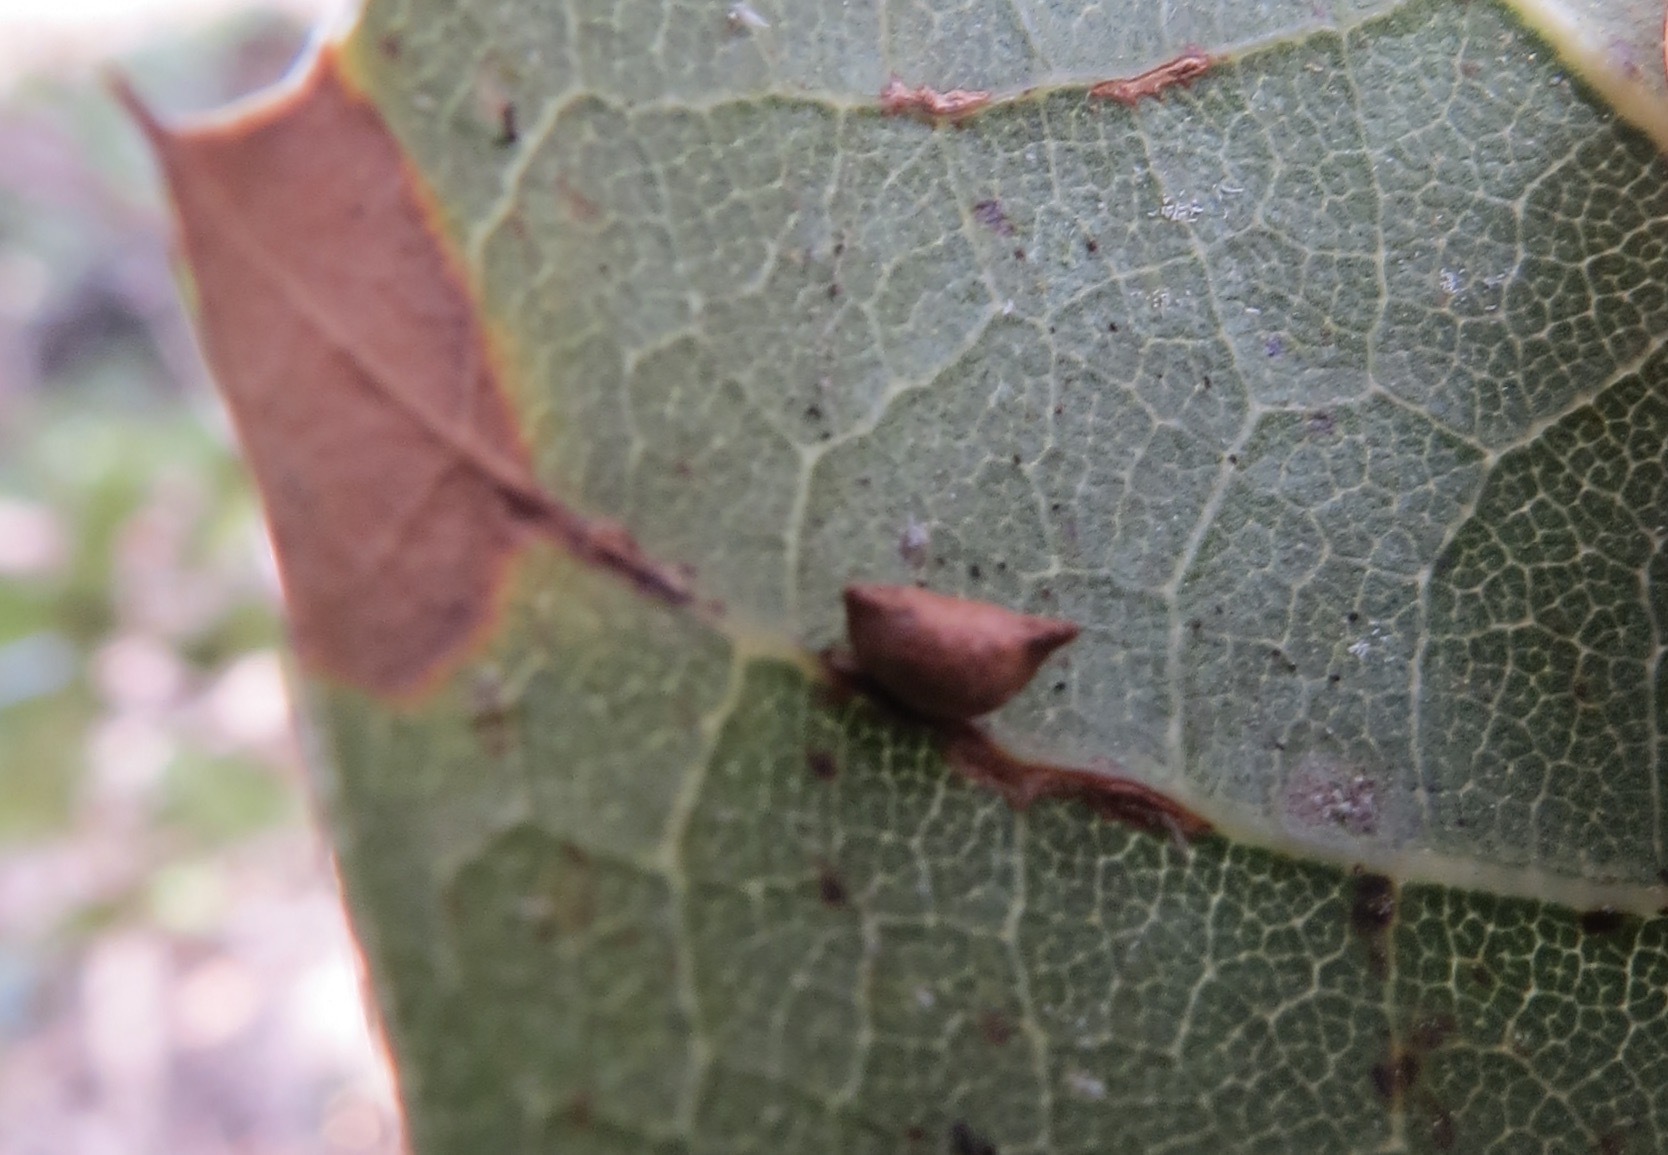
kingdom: Animalia
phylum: Arthropoda
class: Insecta
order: Hymenoptera
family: Cynipidae
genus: Dryocosmus
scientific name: Dryocosmus
